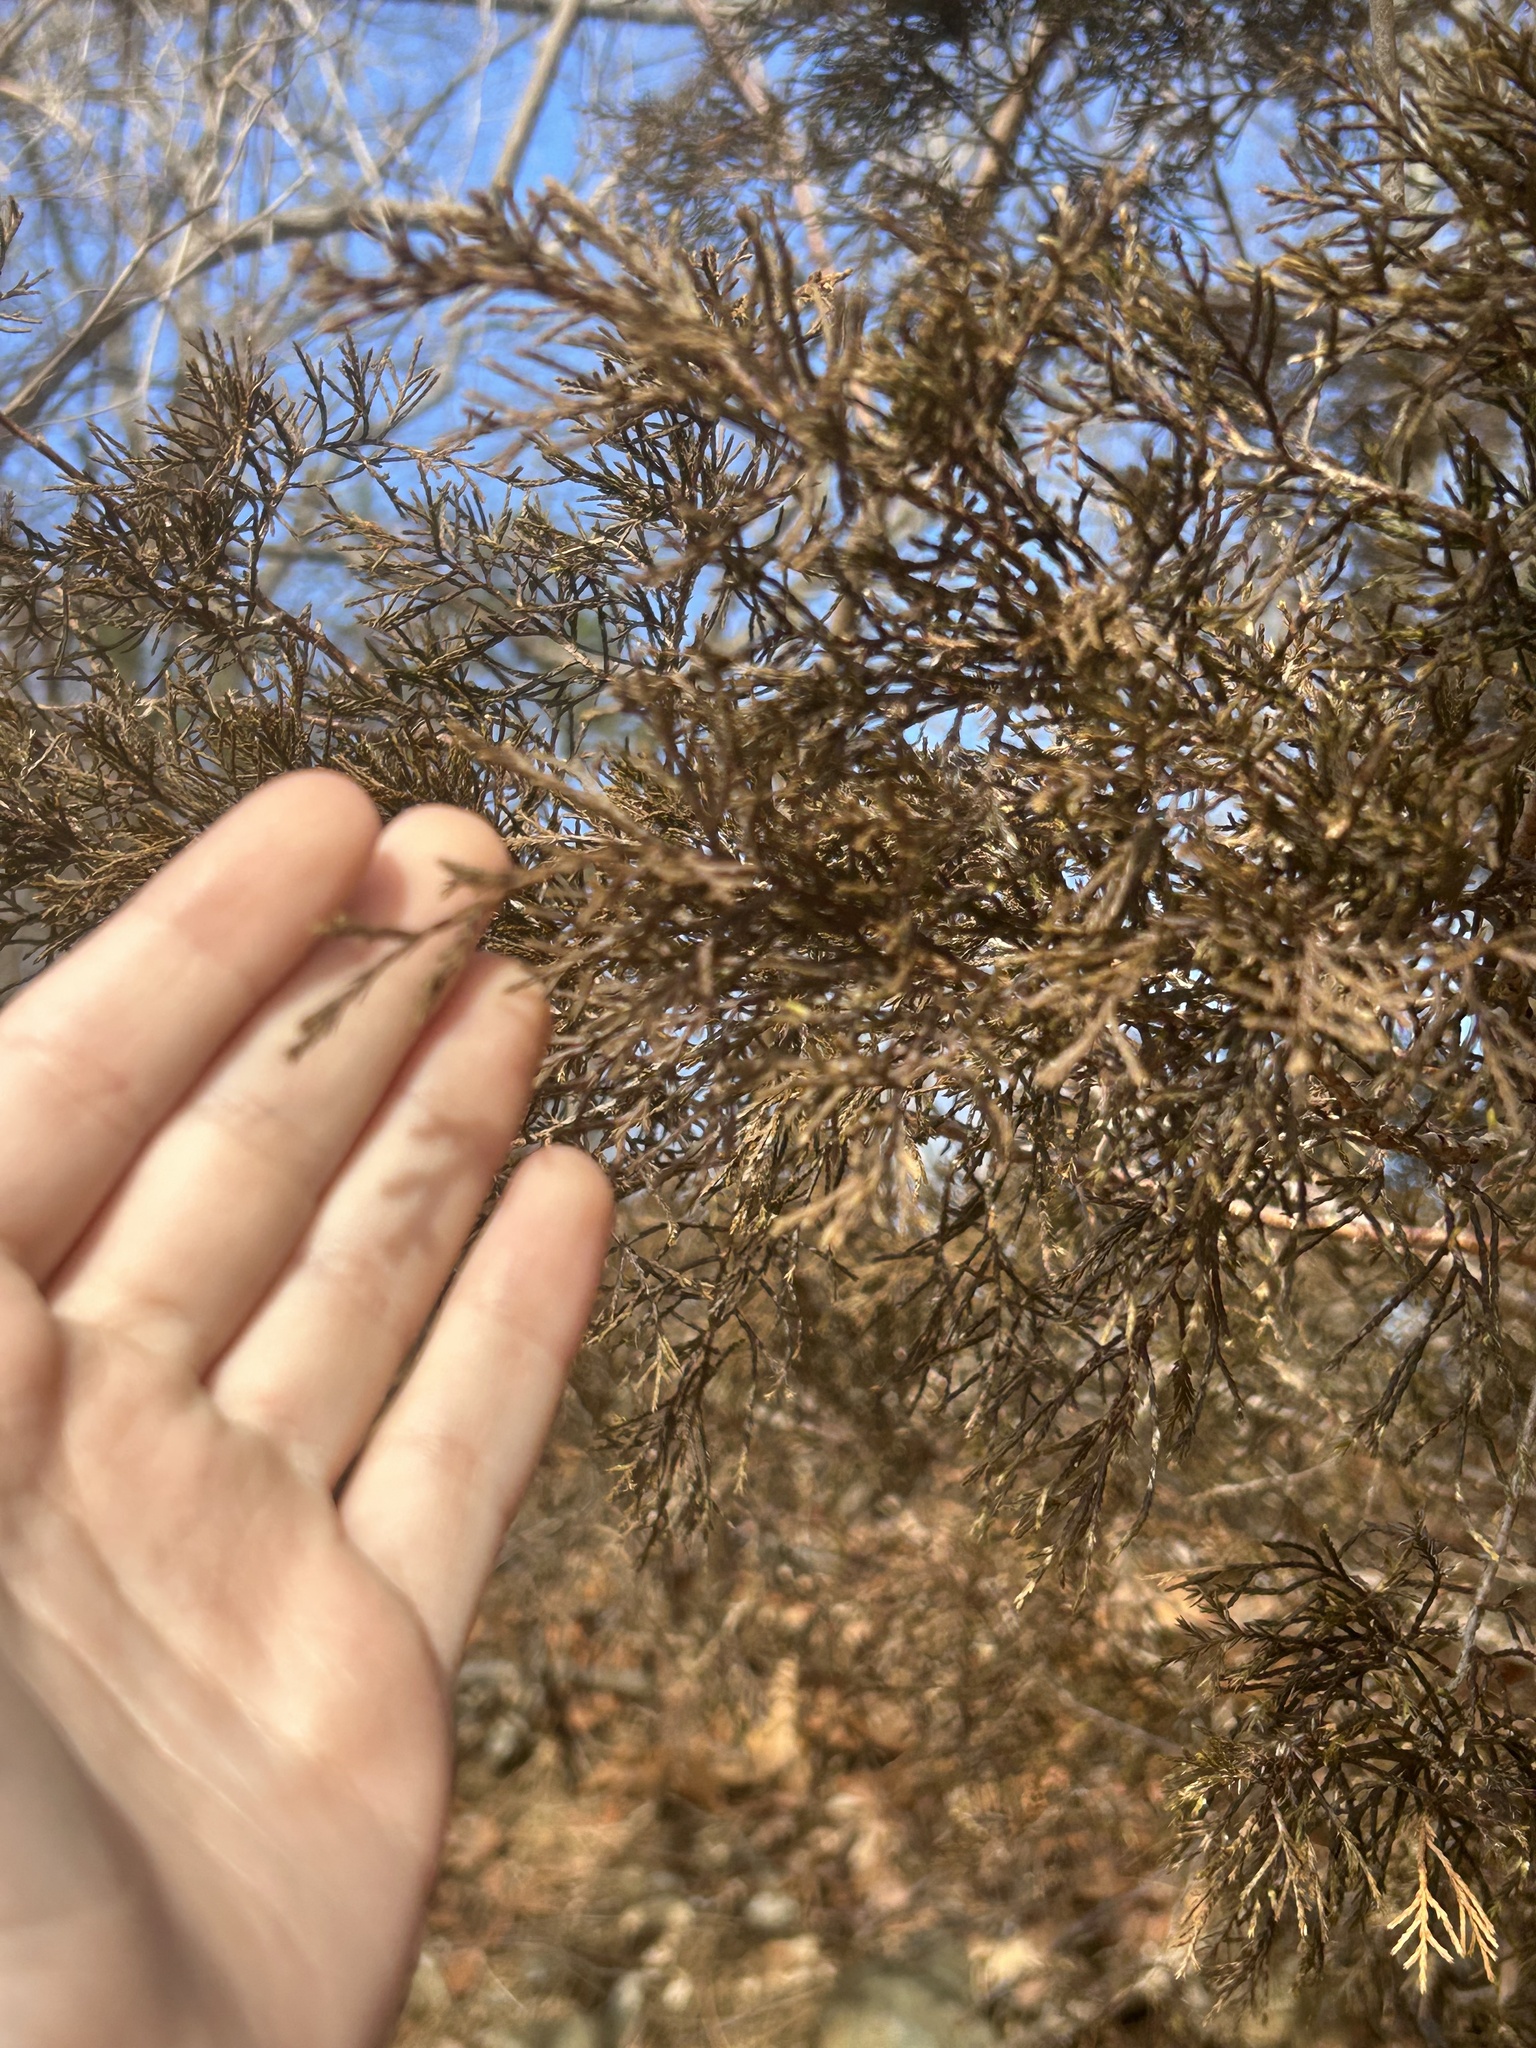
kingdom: Plantae
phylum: Tracheophyta
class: Pinopsida
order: Pinales
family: Cupressaceae
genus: Juniperus
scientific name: Juniperus virginiana
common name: Red juniper
